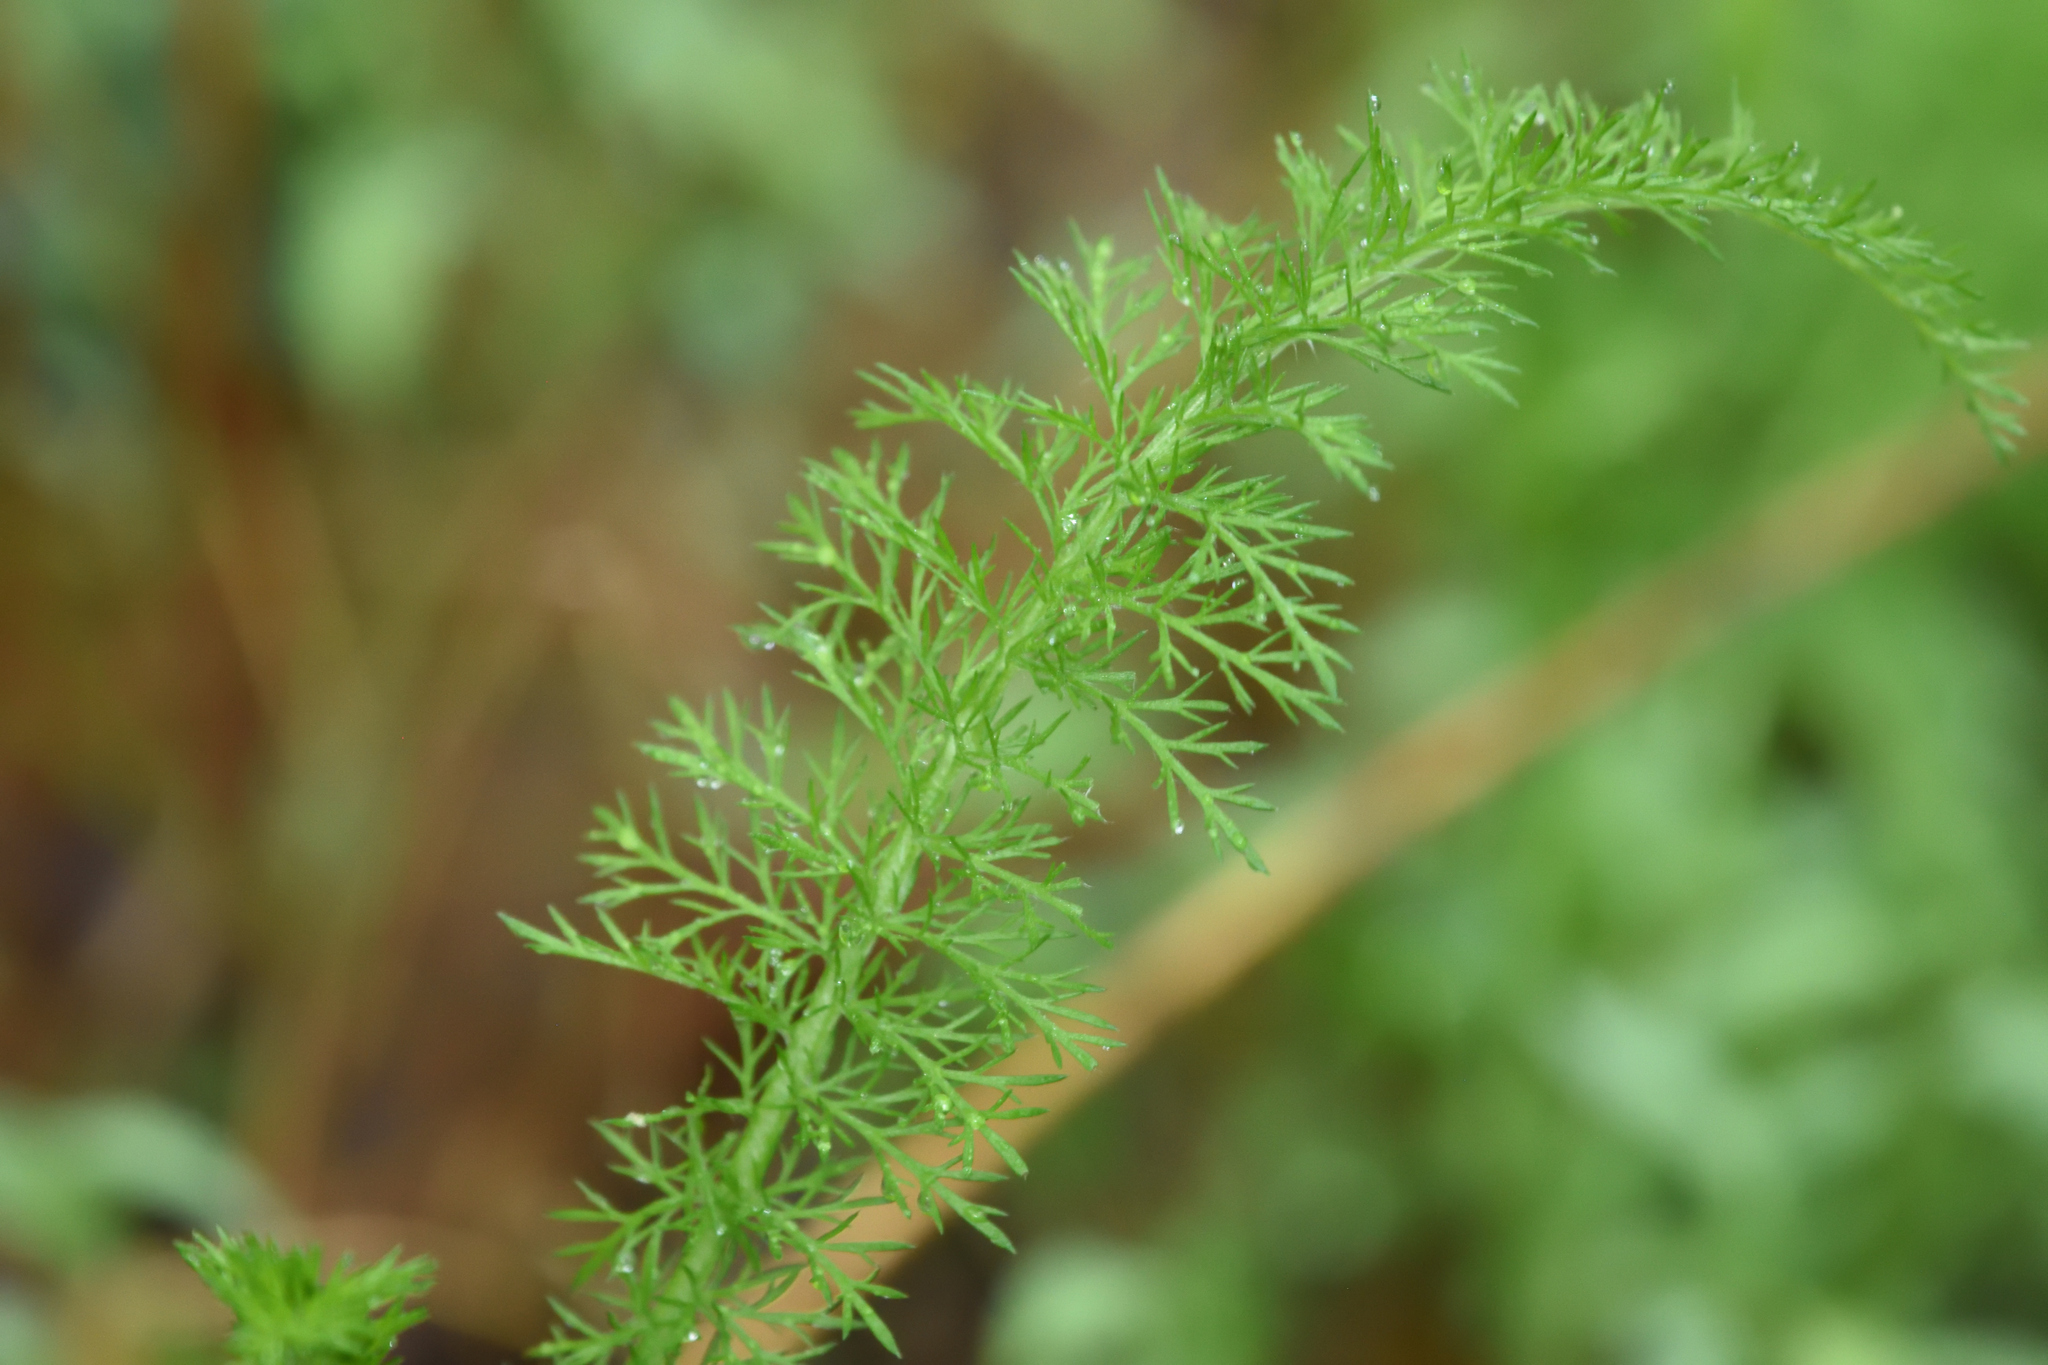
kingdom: Plantae
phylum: Tracheophyta
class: Magnoliopsida
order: Asterales
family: Asteraceae
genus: Achillea
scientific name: Achillea millefolium
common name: Yarrow
